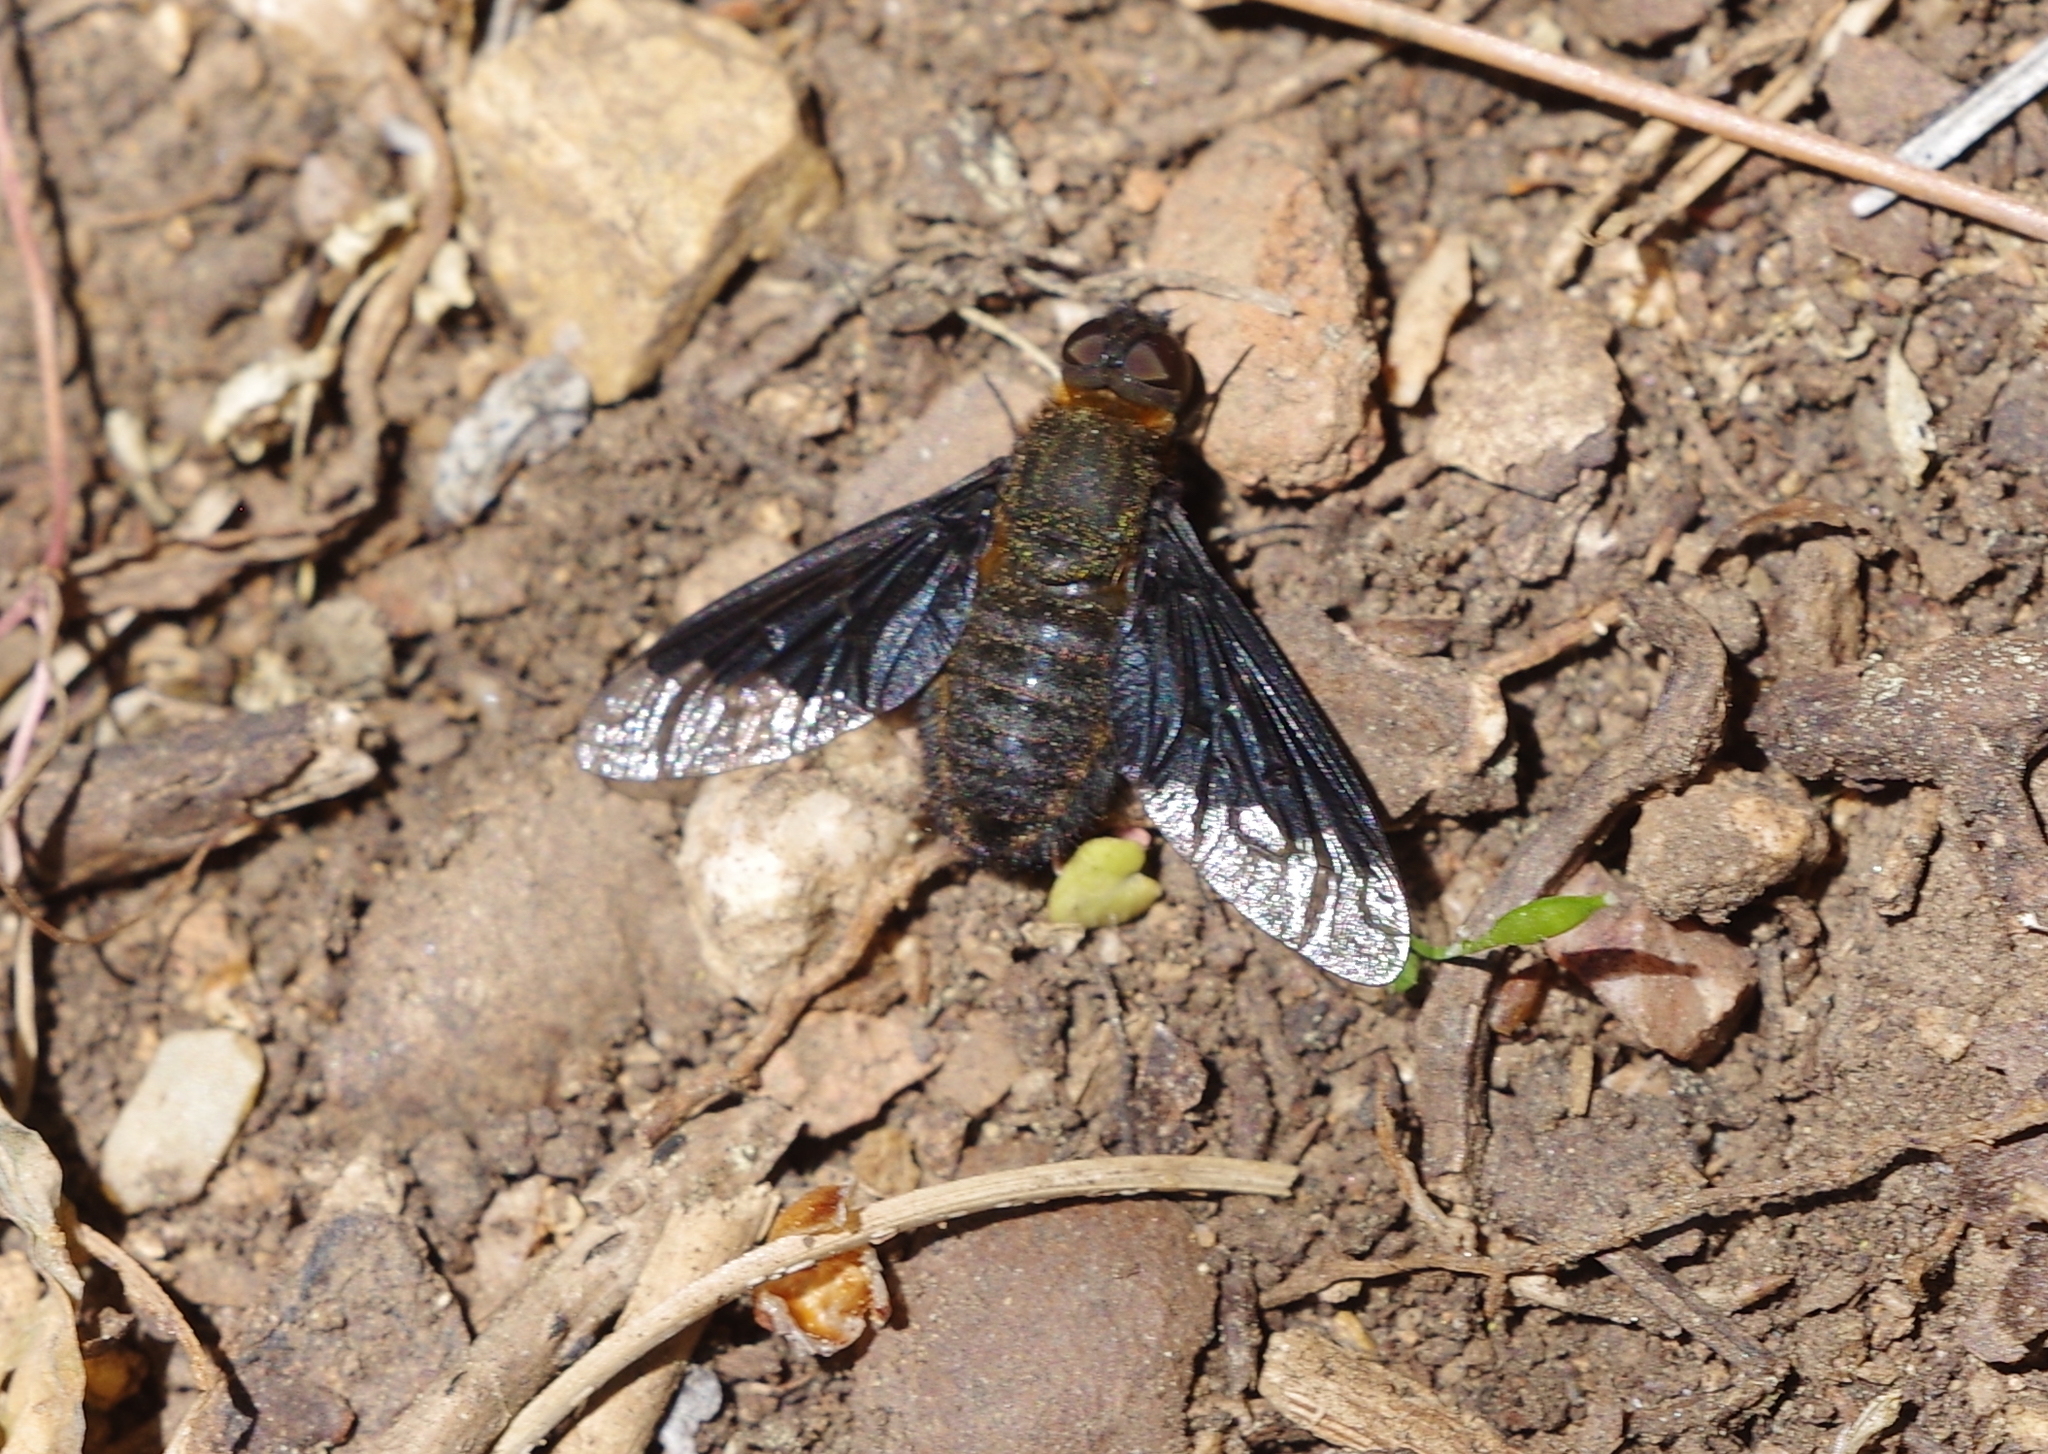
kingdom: Animalia
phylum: Arthropoda
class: Insecta
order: Diptera
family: Bombyliidae
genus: Hemipenthes
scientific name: Hemipenthes morio
